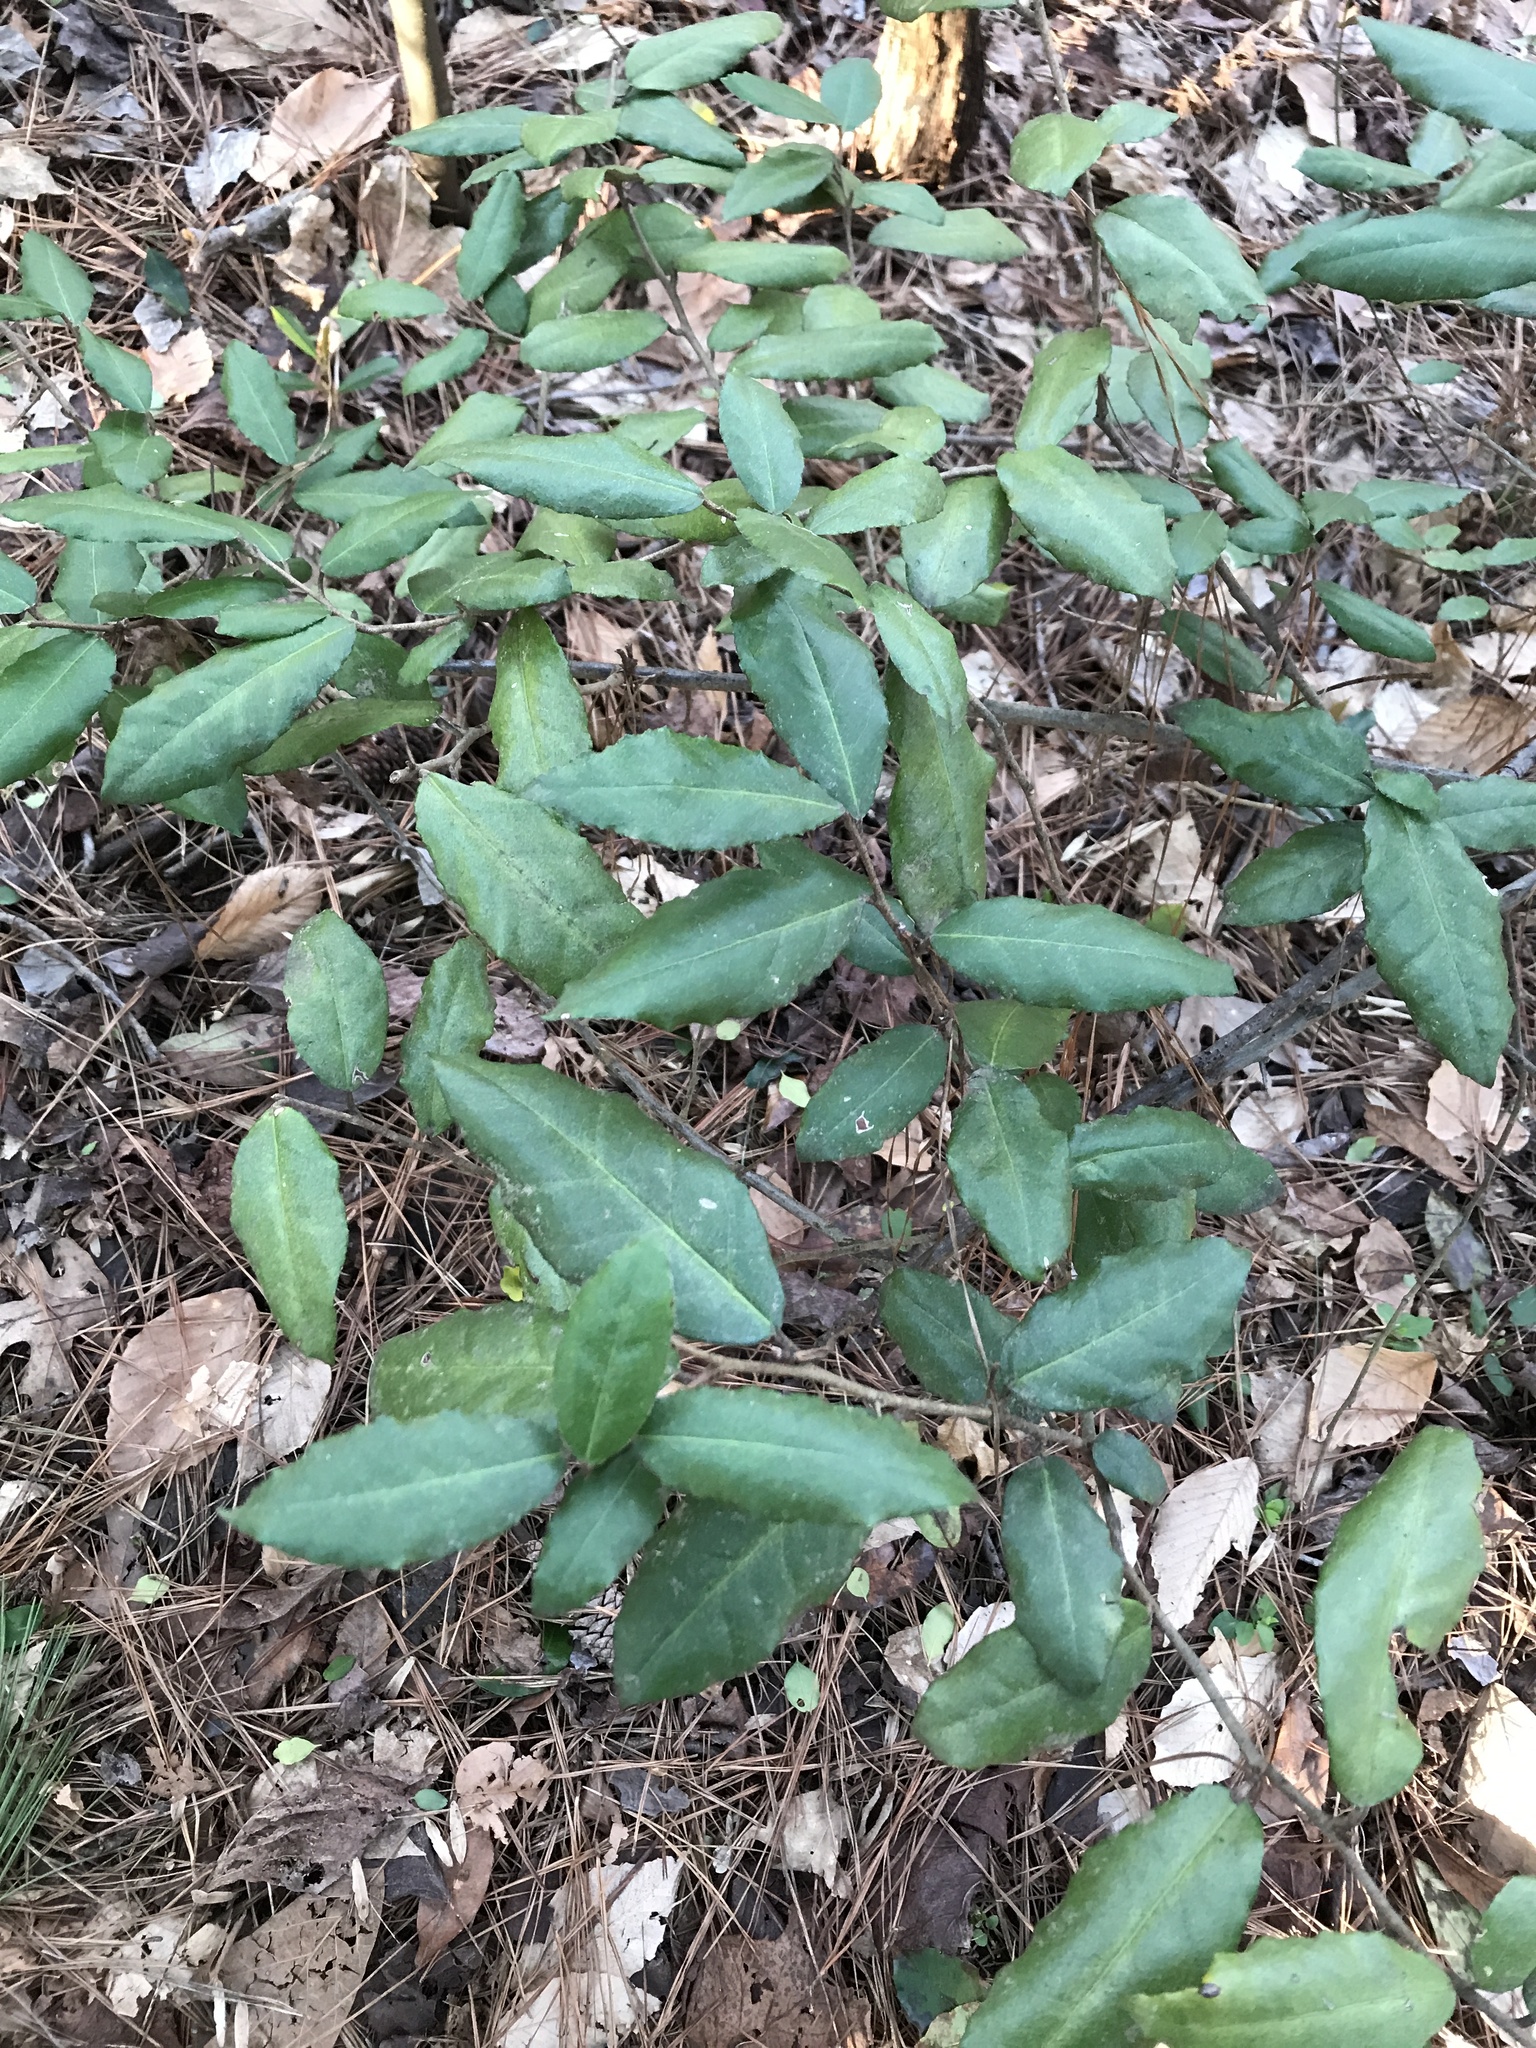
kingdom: Plantae
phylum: Tracheophyta
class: Magnoliopsida
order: Rosales
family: Elaeagnaceae
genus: Elaeagnus
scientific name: Elaeagnus pungens
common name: Spiny oleaster
